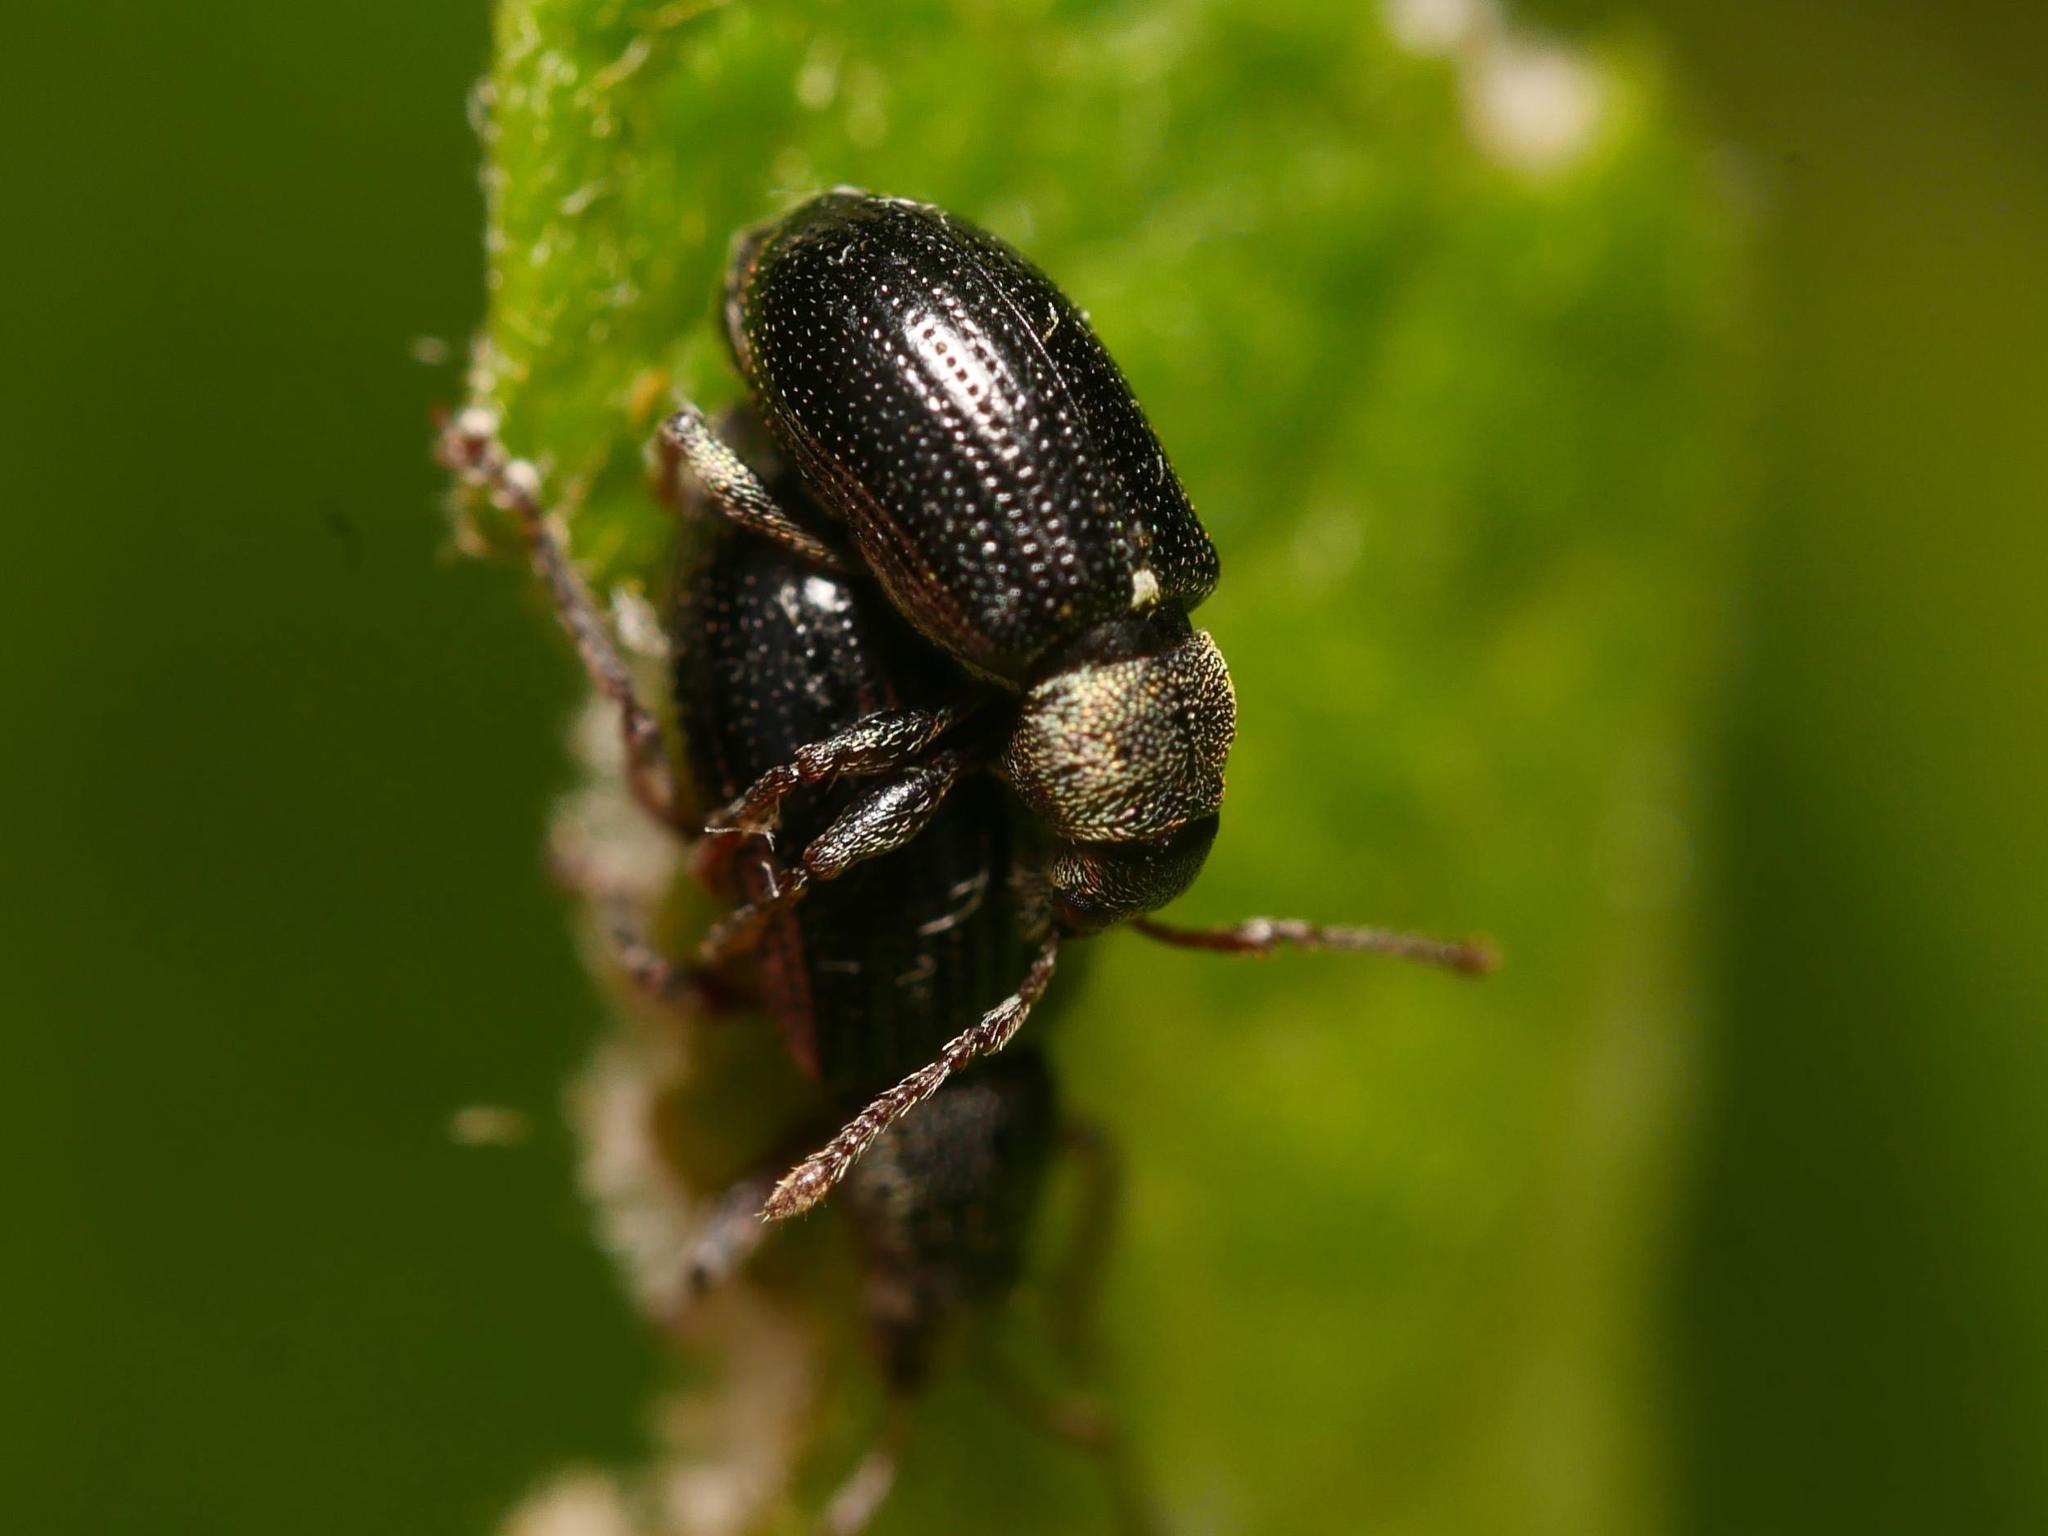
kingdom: Animalia
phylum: Arthropoda
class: Insecta
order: Coleoptera
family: Curculionidae
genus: Phyllobius
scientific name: Phyllobius viridicollis
